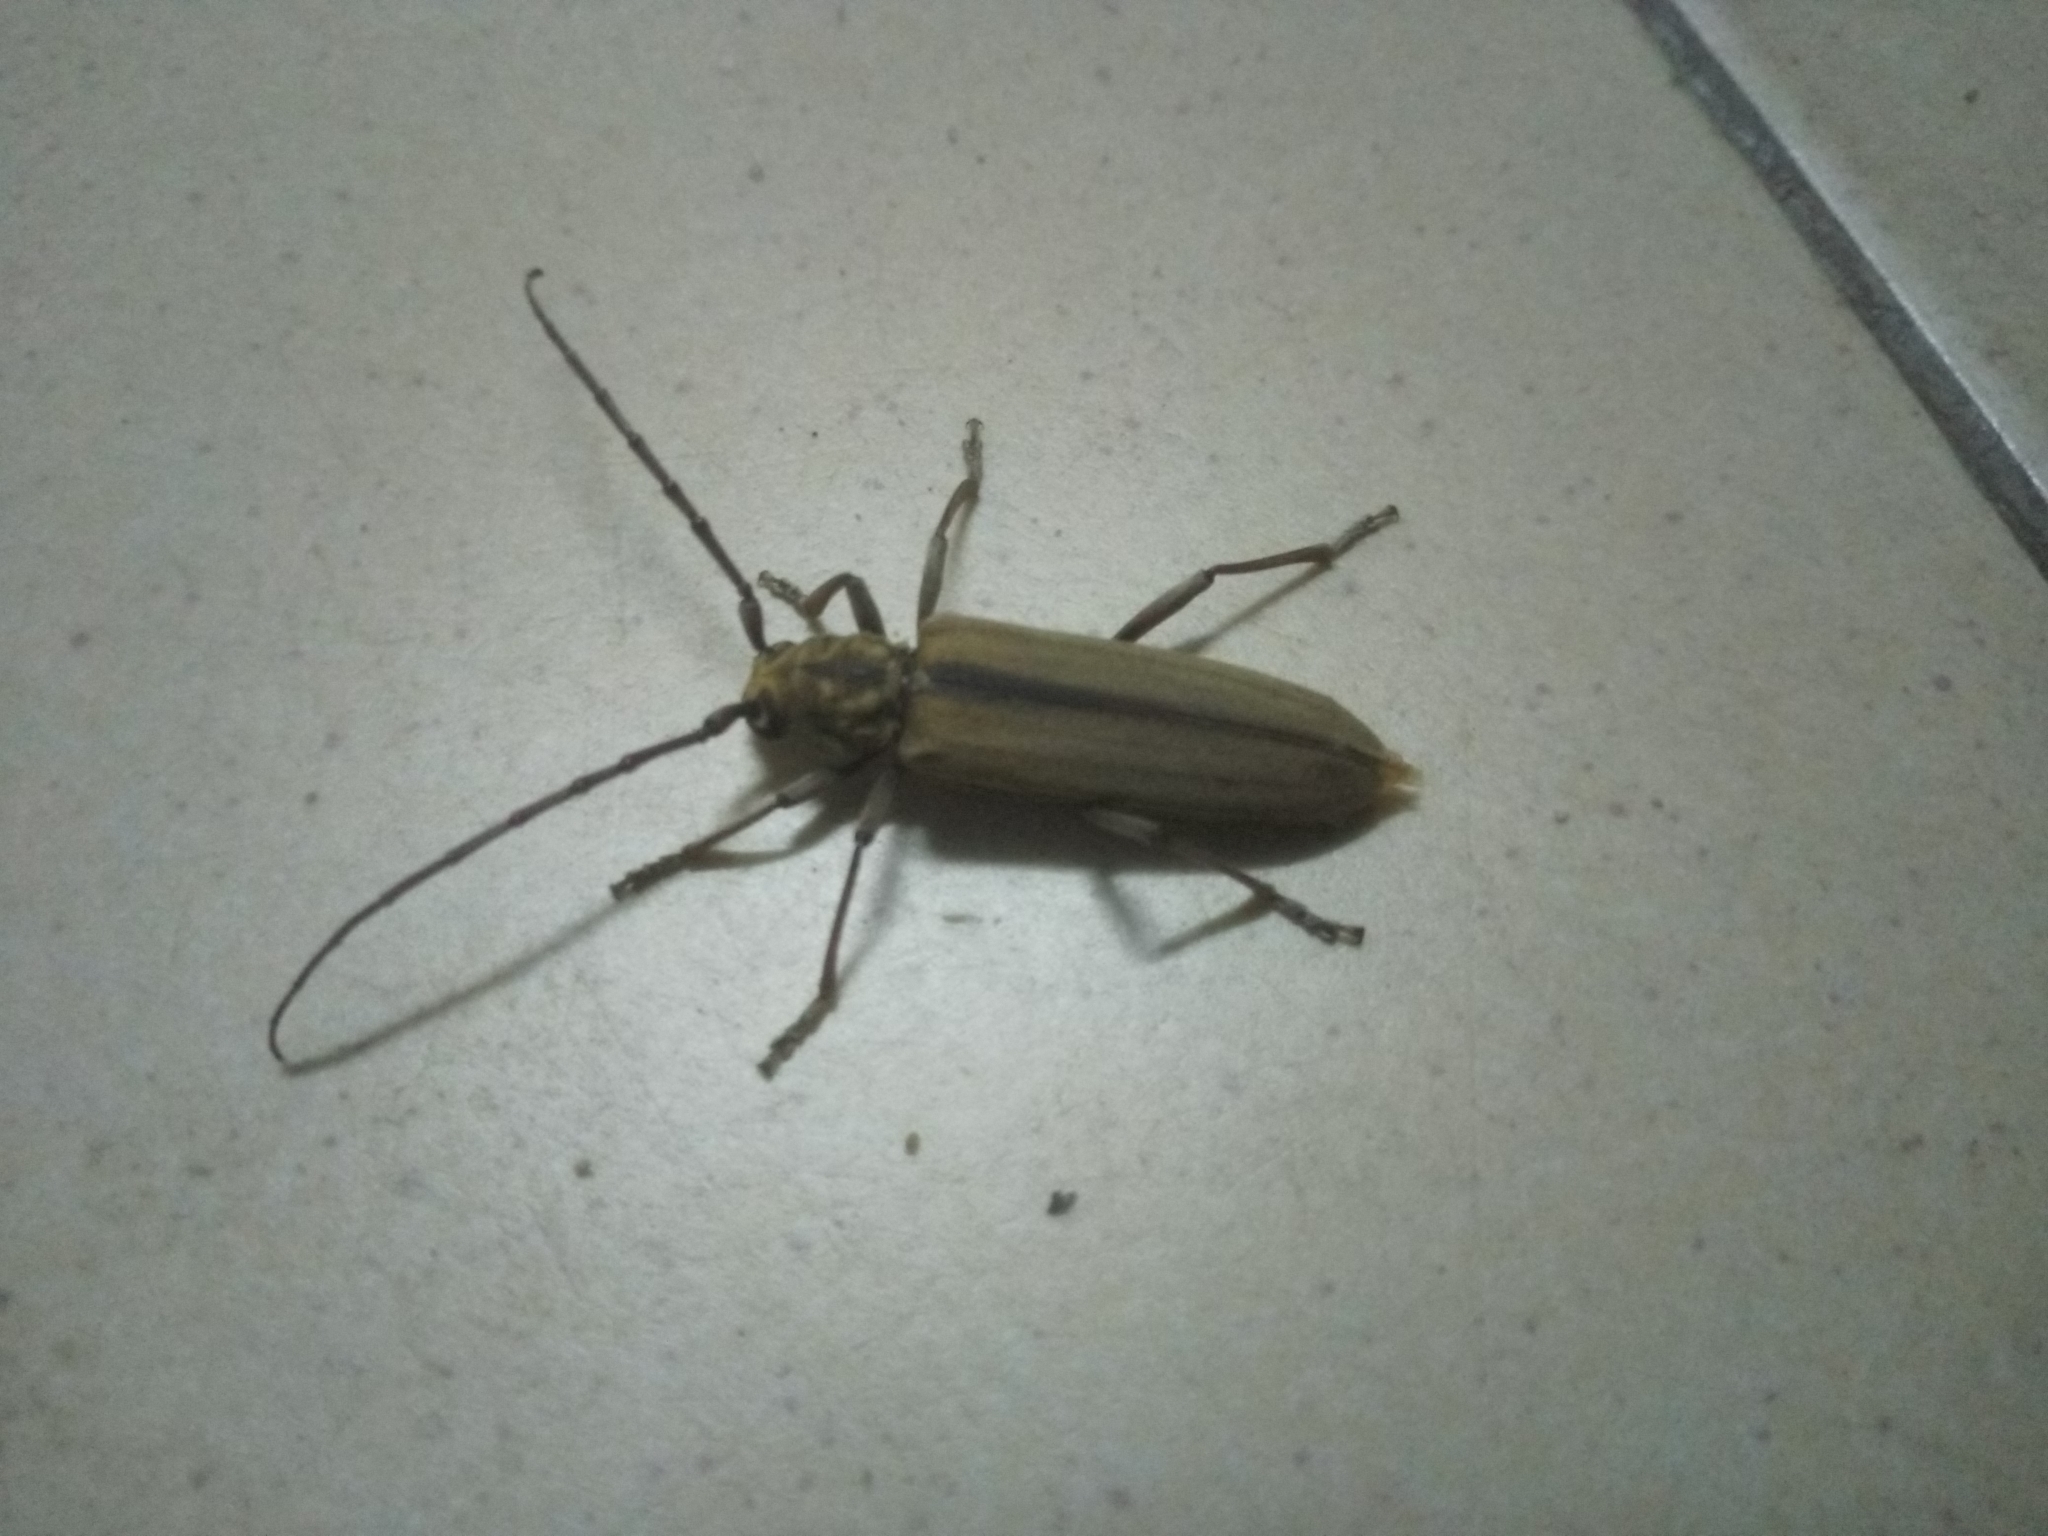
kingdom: Animalia
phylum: Arthropoda
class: Insecta
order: Coleoptera
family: Cerambycidae
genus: Tomentophanes
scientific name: Tomentophanes vestitus
